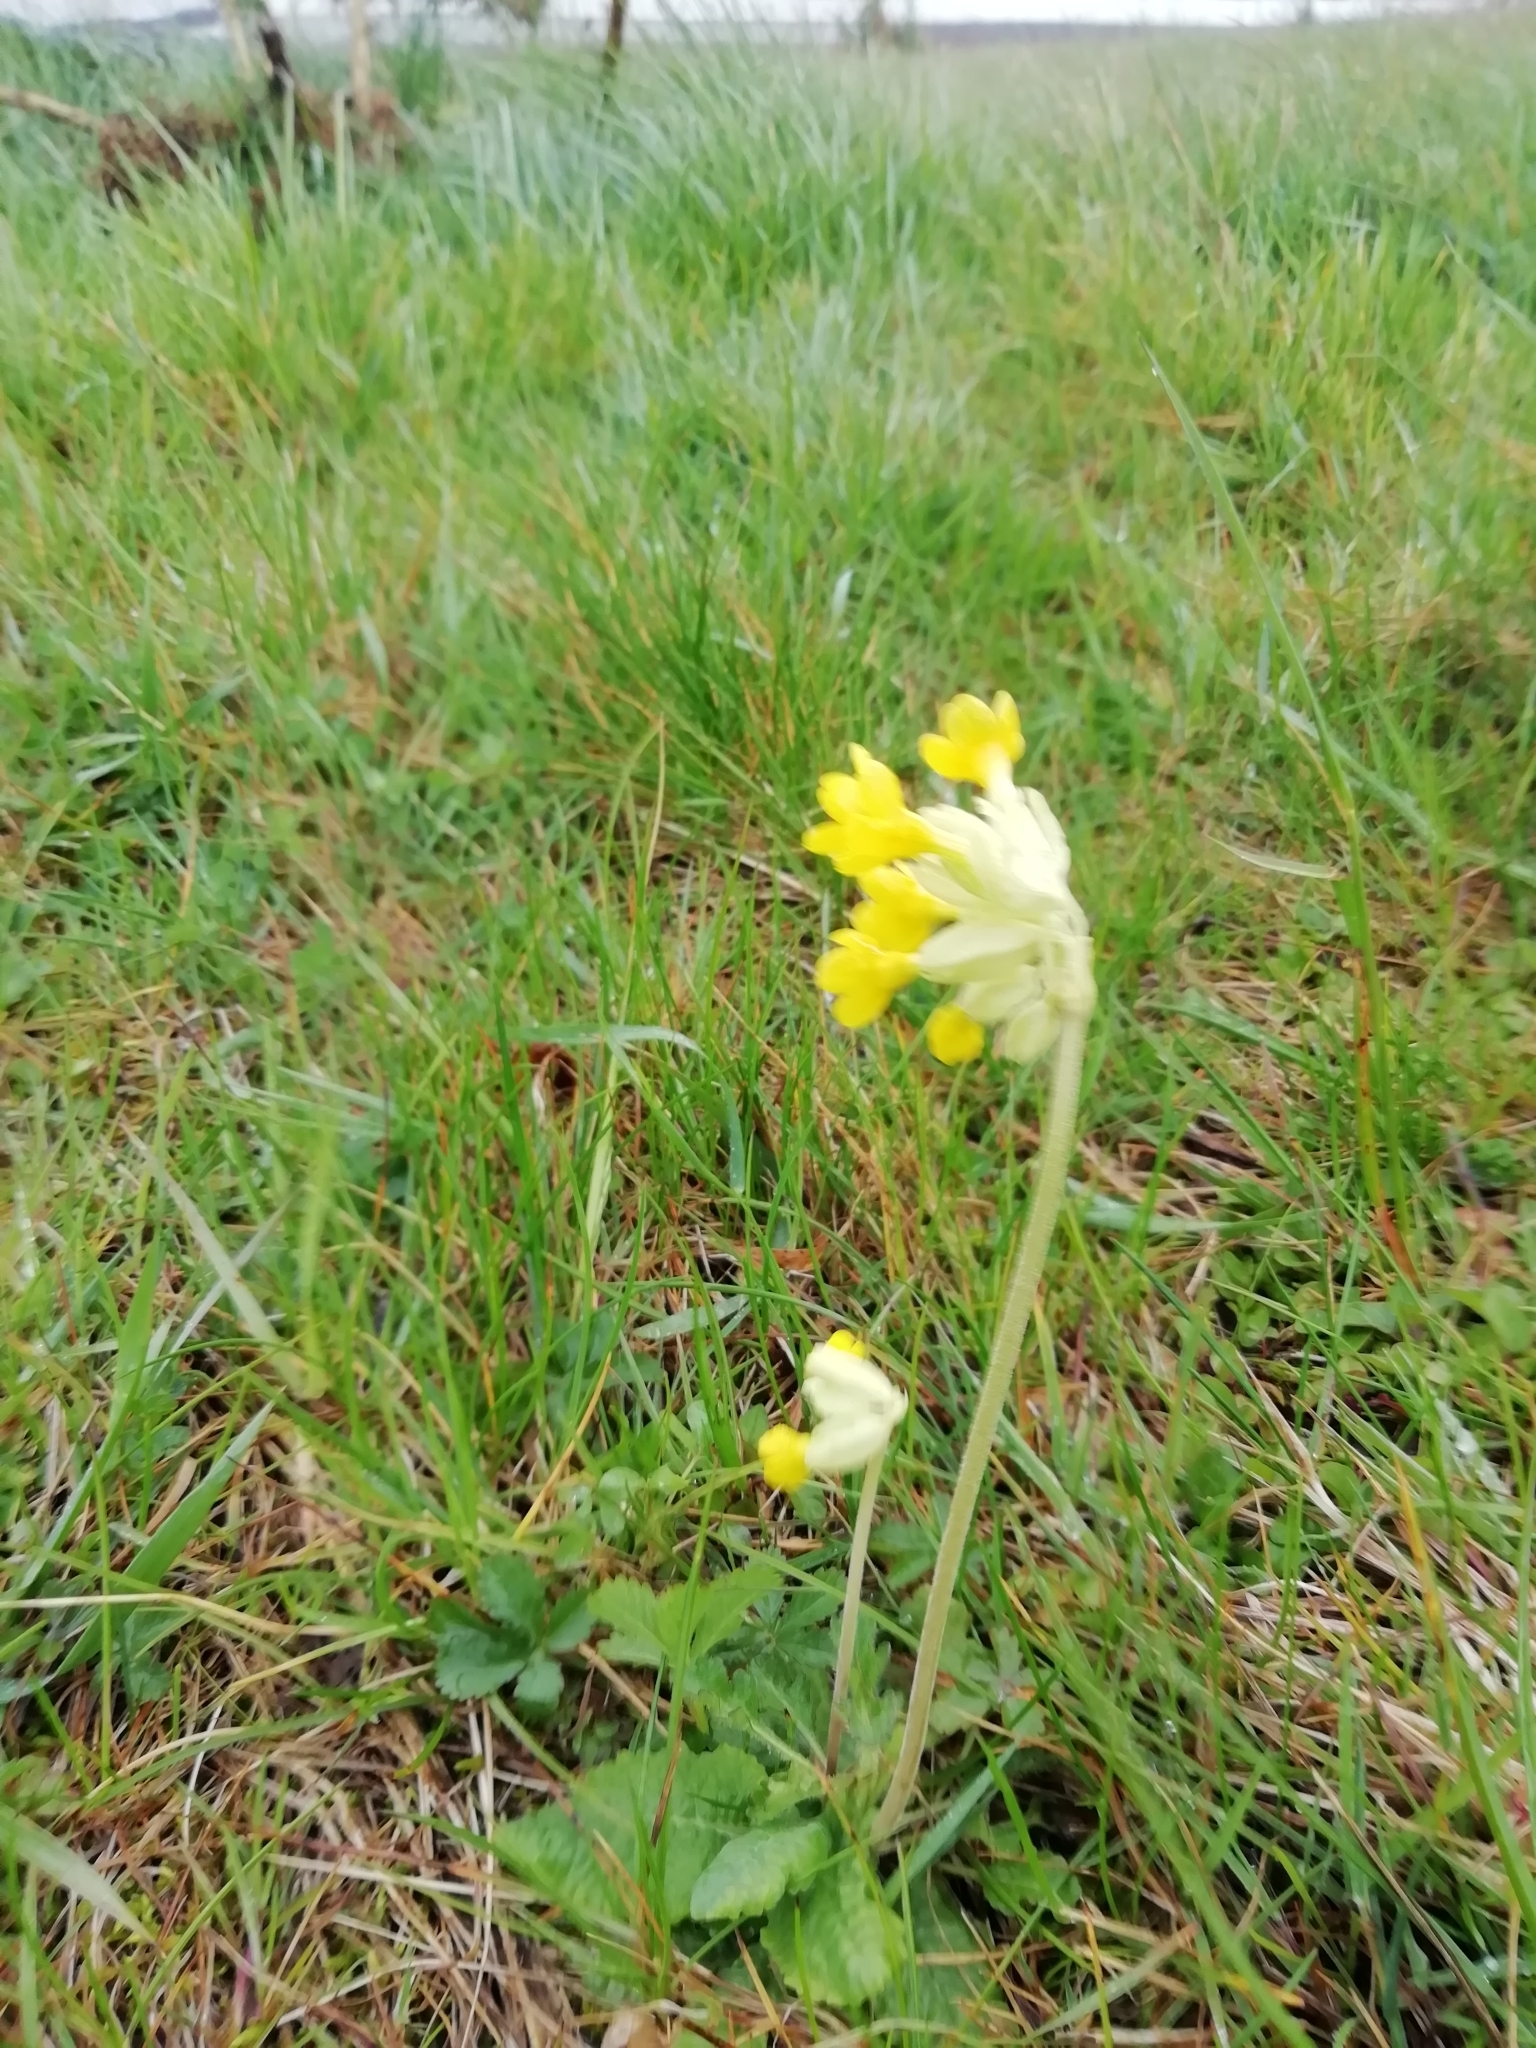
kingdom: Plantae
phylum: Tracheophyta
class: Magnoliopsida
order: Ericales
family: Primulaceae
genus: Primula
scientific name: Primula veris
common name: Cowslip
